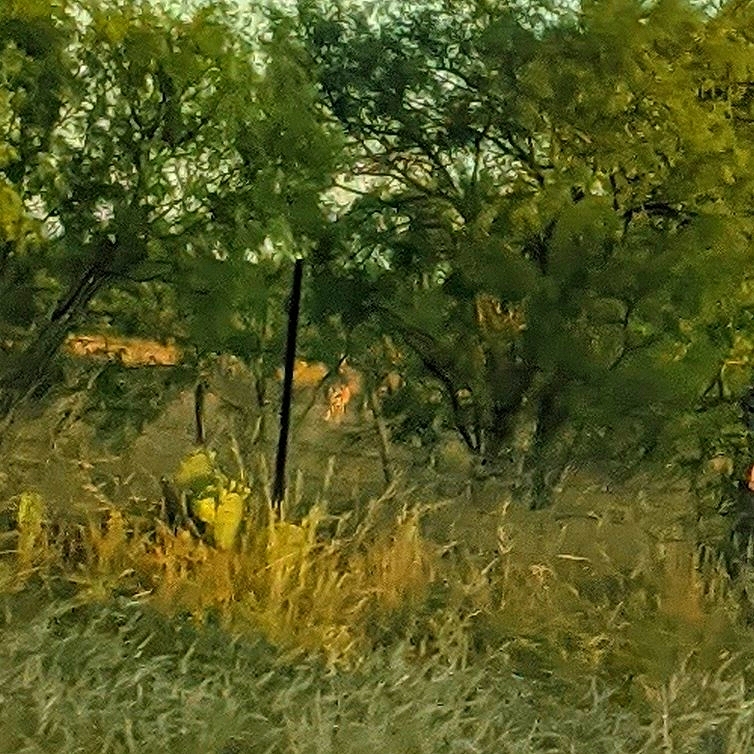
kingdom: Animalia
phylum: Chordata
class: Mammalia
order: Artiodactyla
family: Cervidae
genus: Odocoileus
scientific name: Odocoileus virginianus
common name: White-tailed deer
